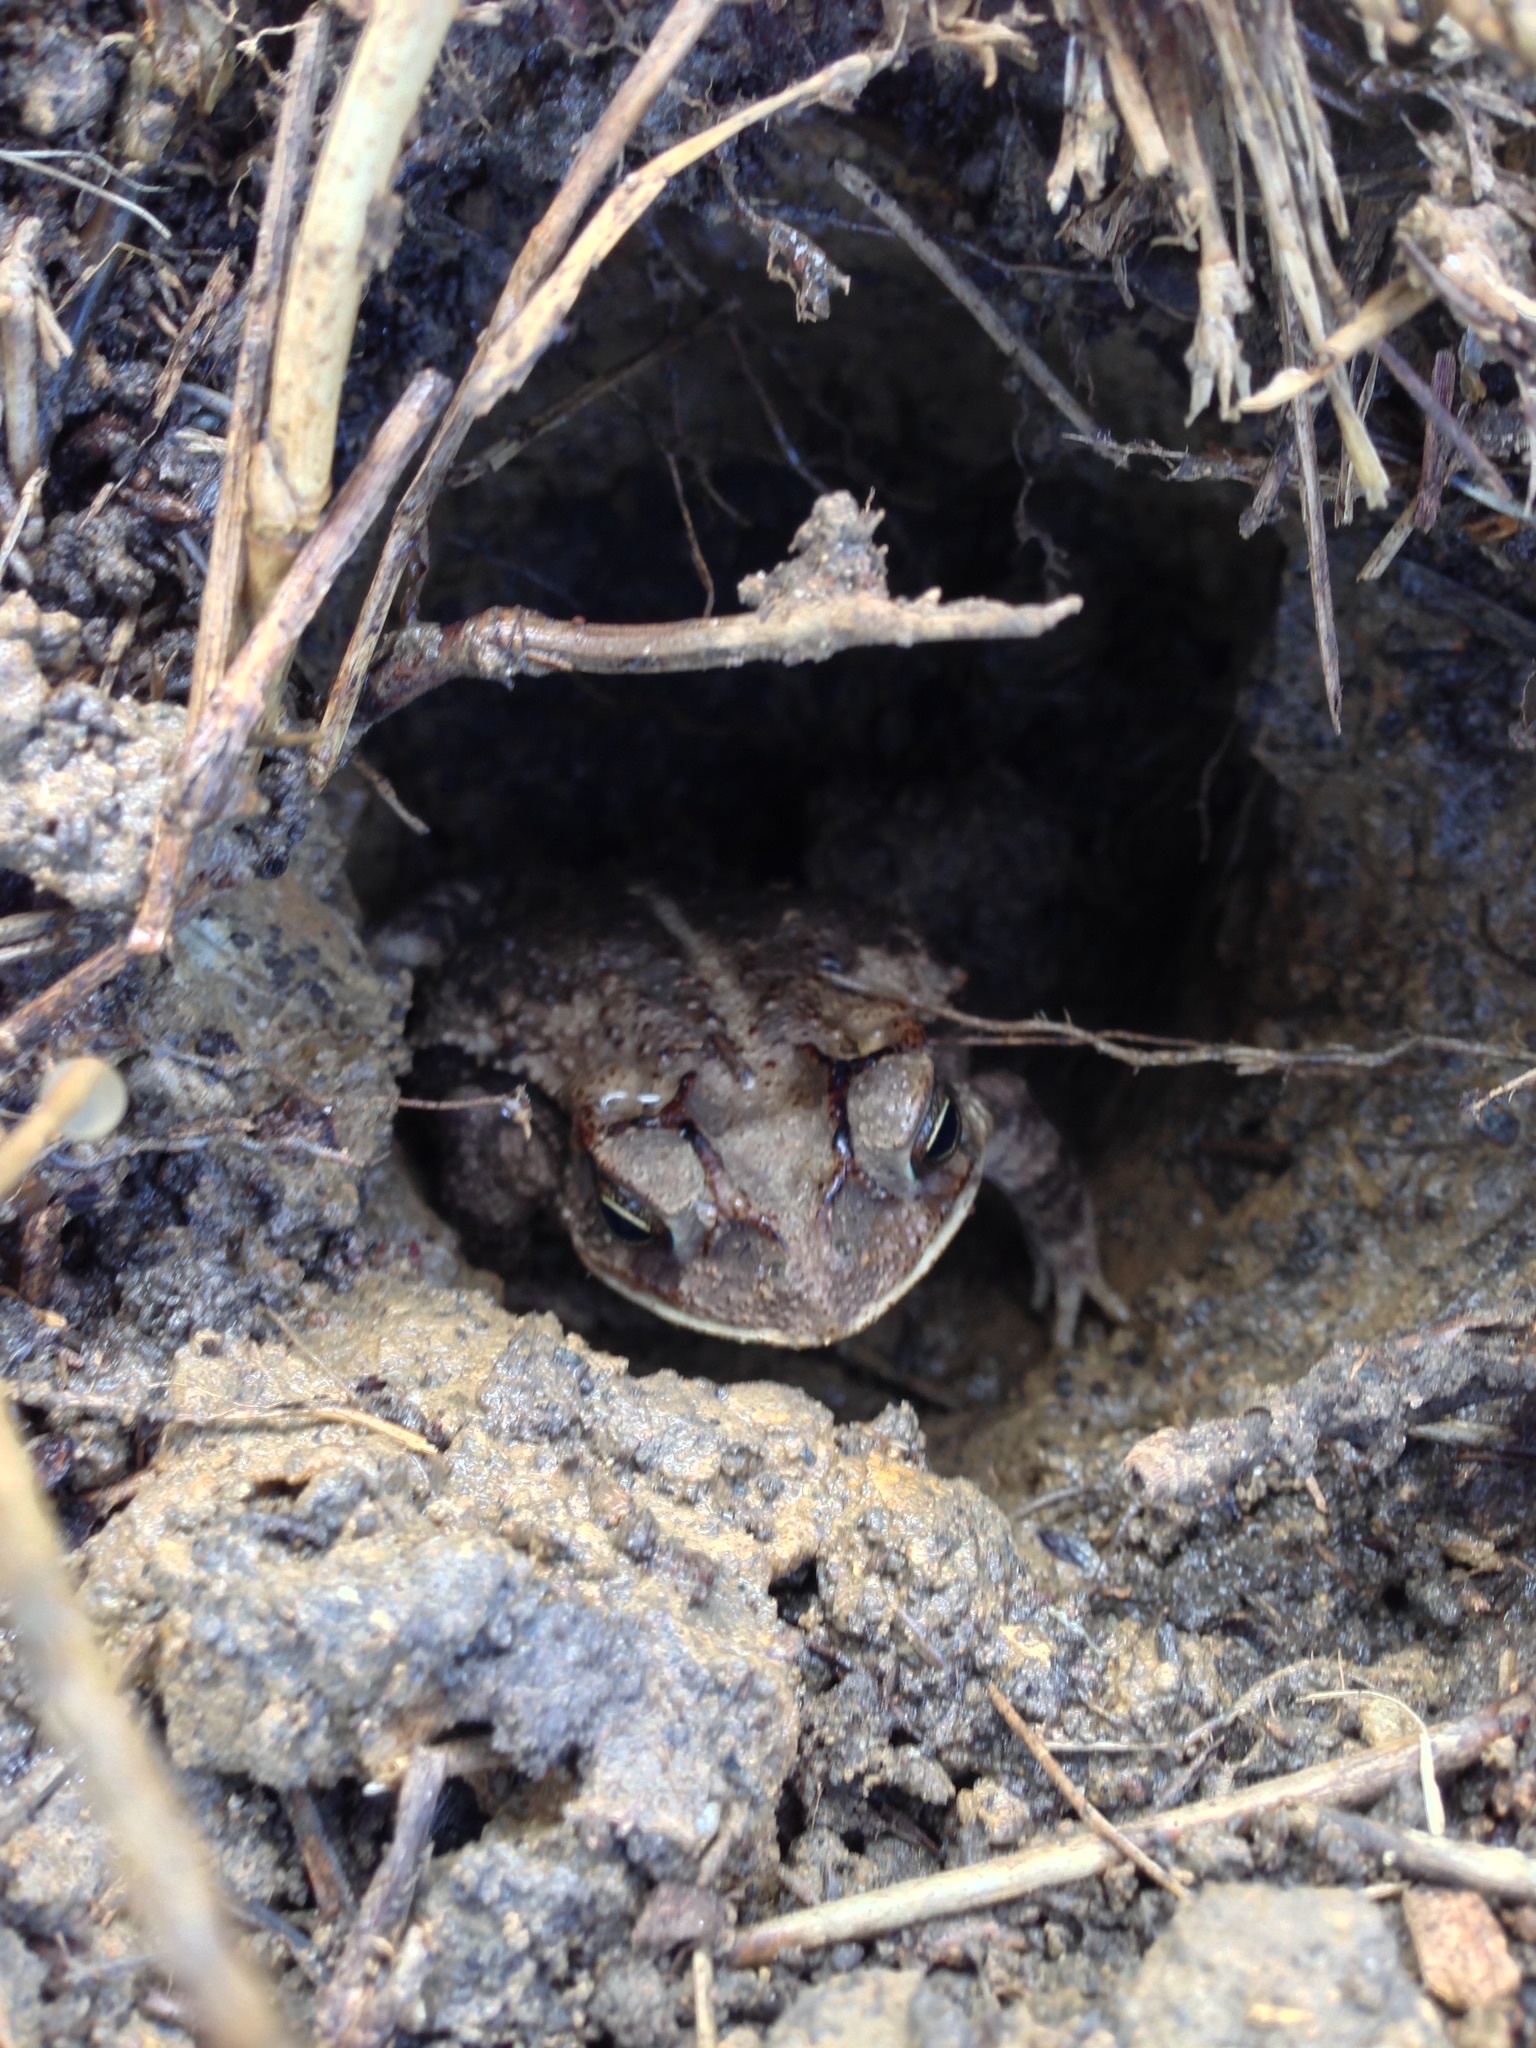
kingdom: Animalia
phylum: Chordata
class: Amphibia
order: Anura
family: Bufonidae
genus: Incilius
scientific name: Incilius nebulifer
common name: Gulf coast toad
